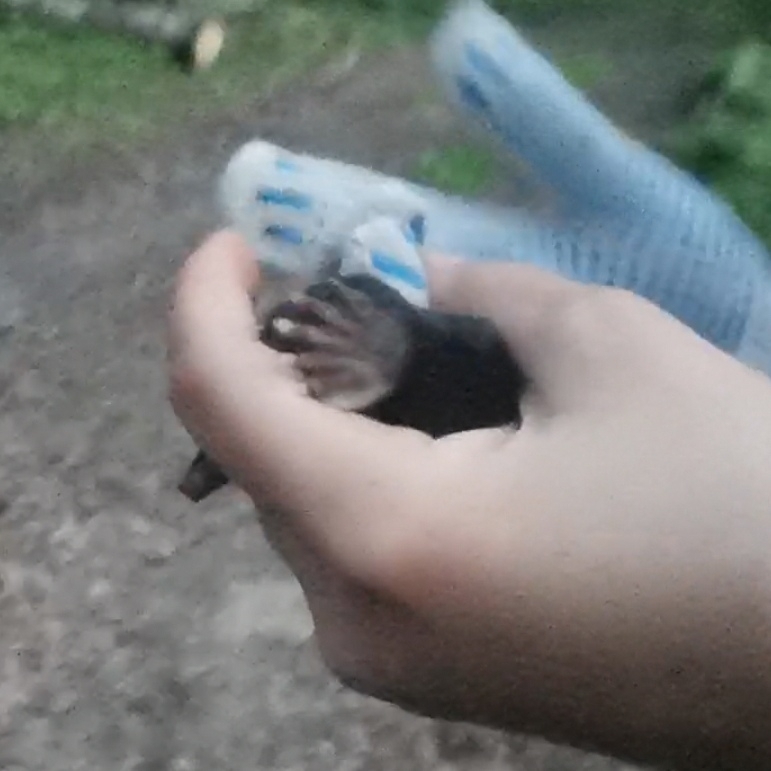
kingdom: Animalia
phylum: Chordata
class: Mammalia
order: Soricomorpha
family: Talpidae
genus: Talpa
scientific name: Talpa europaea
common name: European mole
